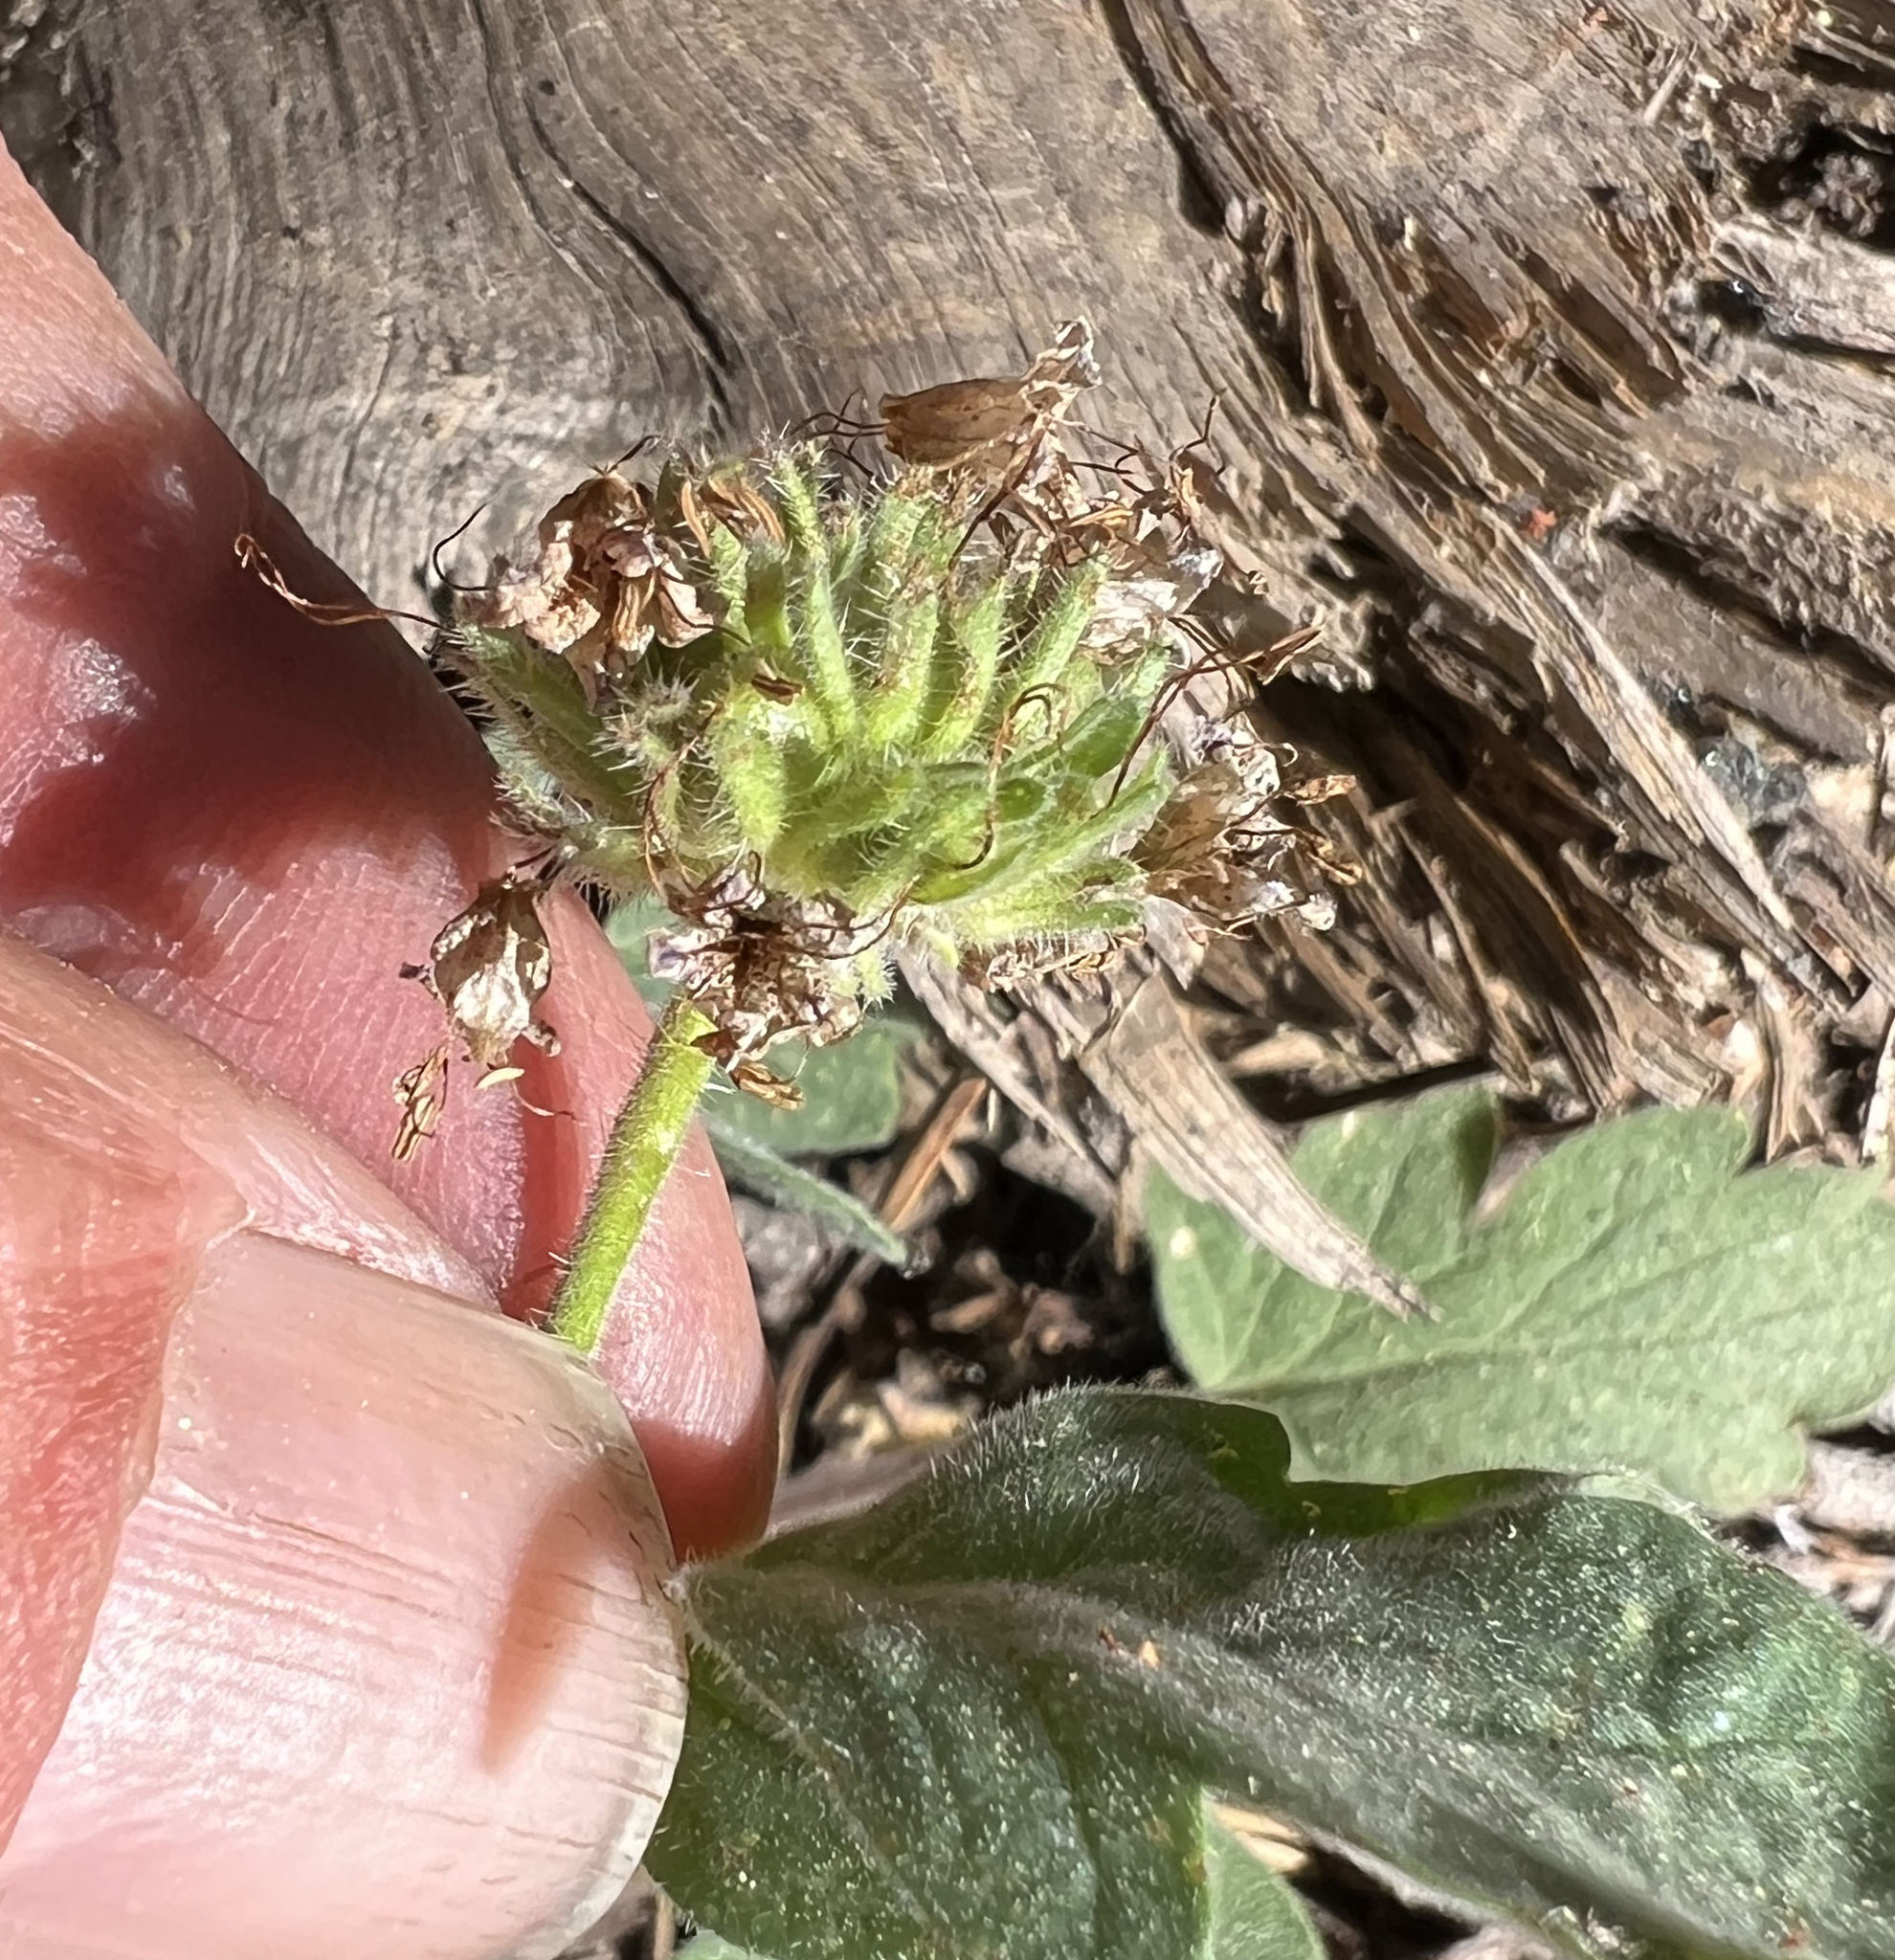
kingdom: Plantae
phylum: Tracheophyta
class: Magnoliopsida
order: Boraginales
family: Hydrophyllaceae
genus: Phacelia
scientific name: Phacelia hydrophylloides
